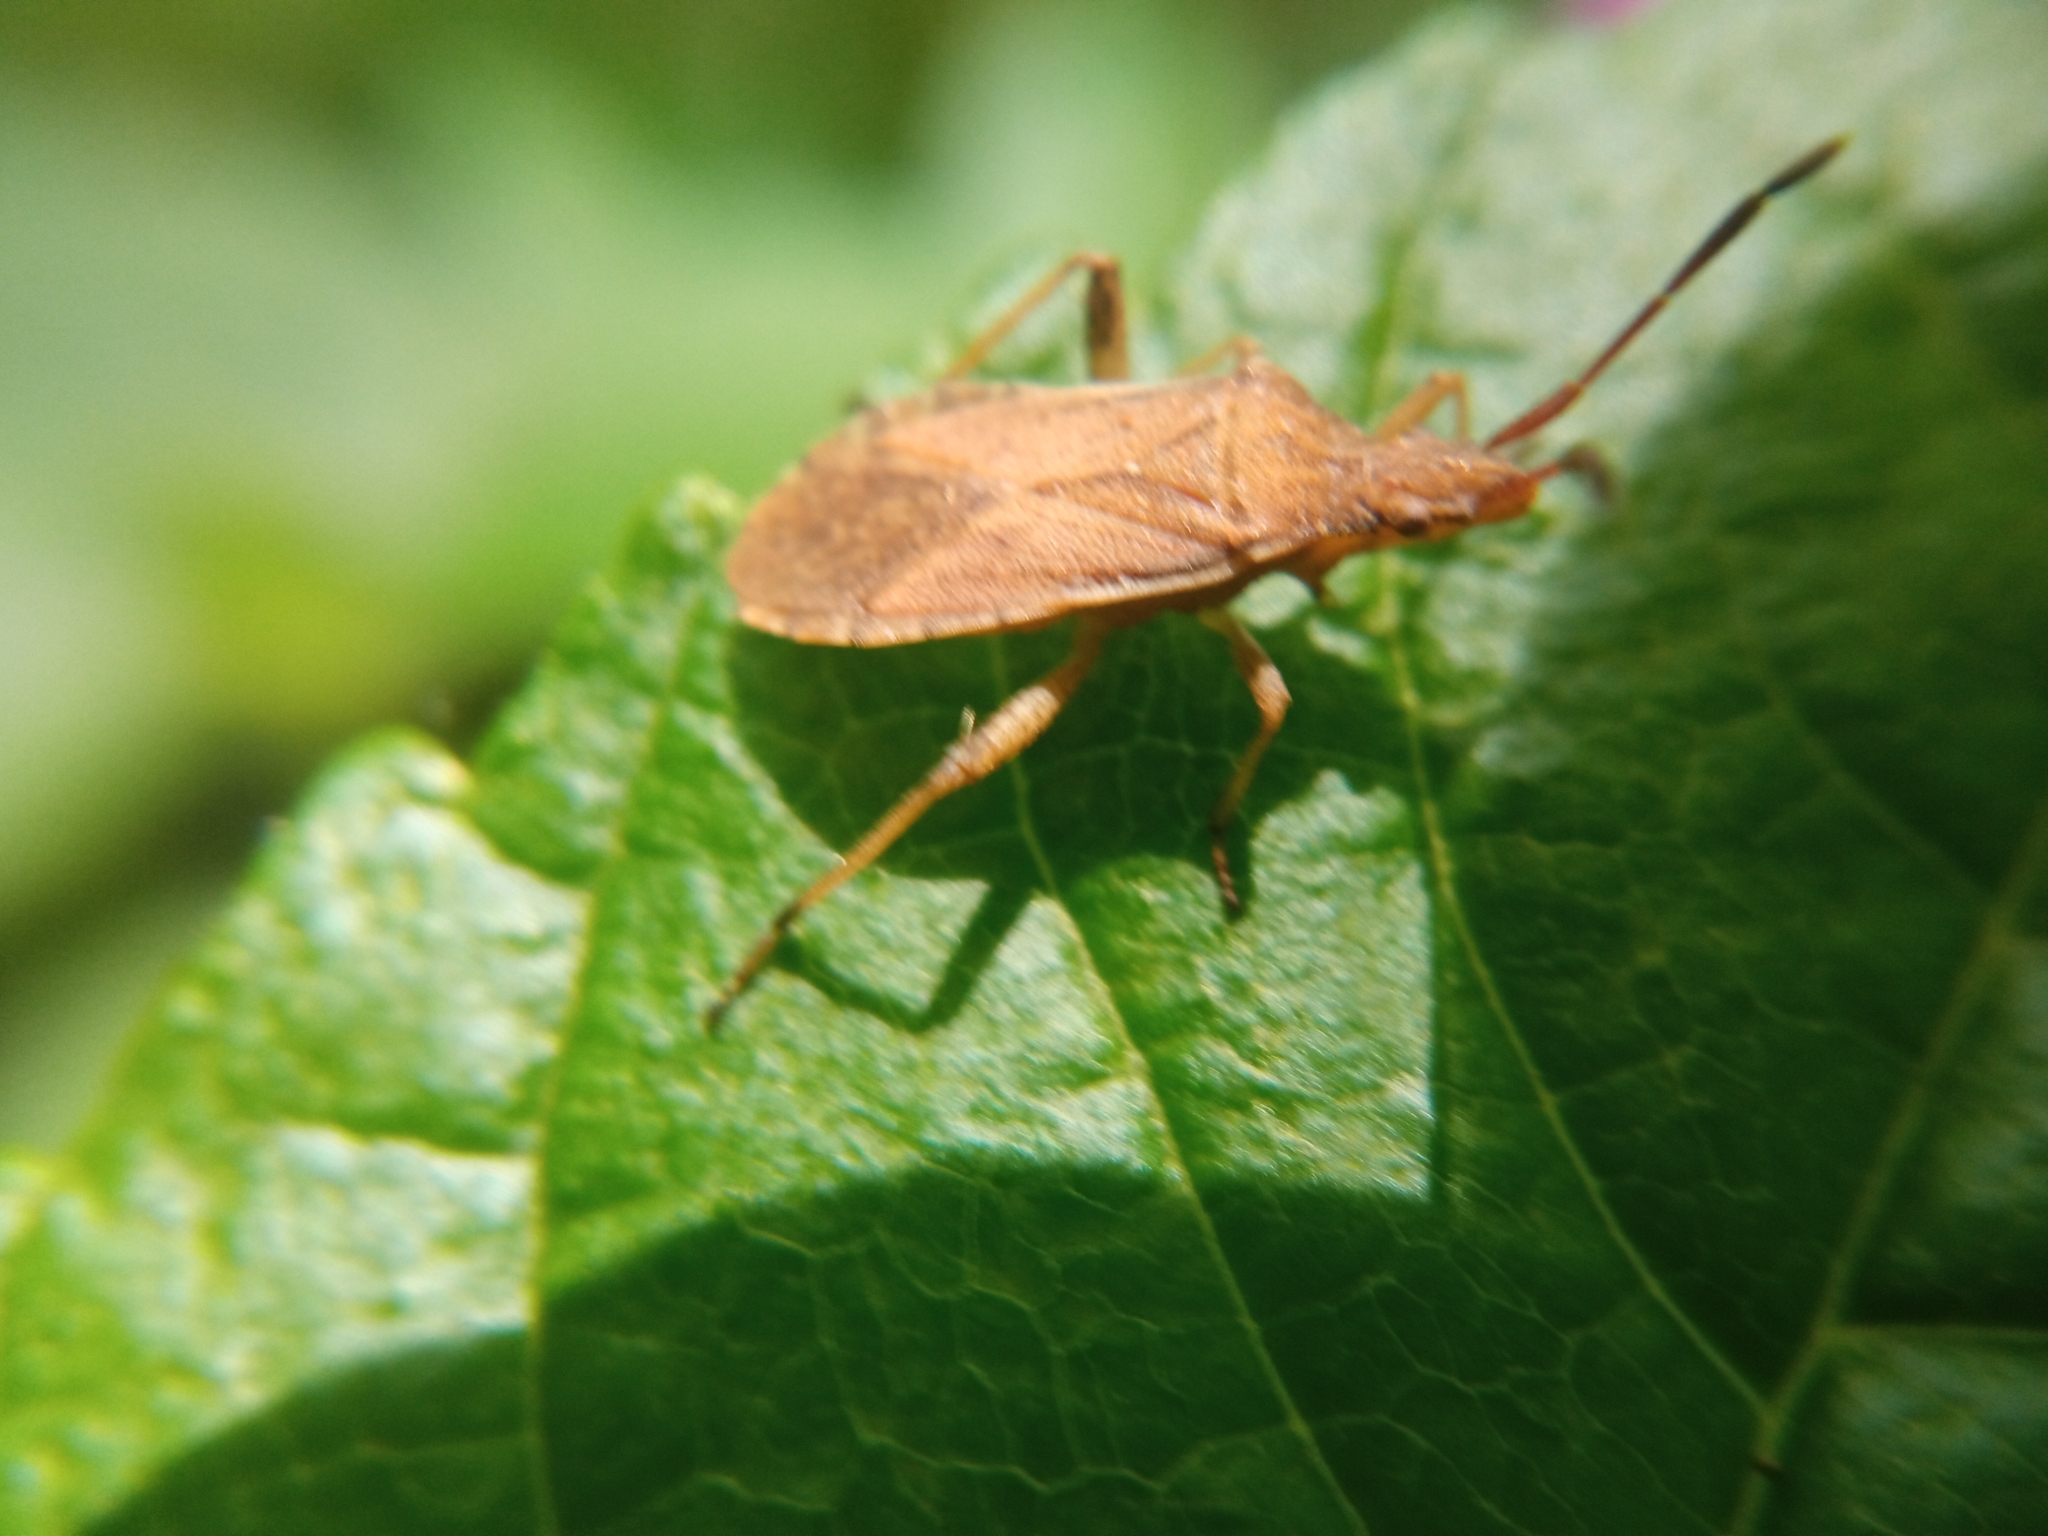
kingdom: Animalia
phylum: Arthropoda
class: Insecta
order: Hemiptera
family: Coreidae
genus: Ceraleptus
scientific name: Ceraleptus lividus
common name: Slender-horned leatherbug
